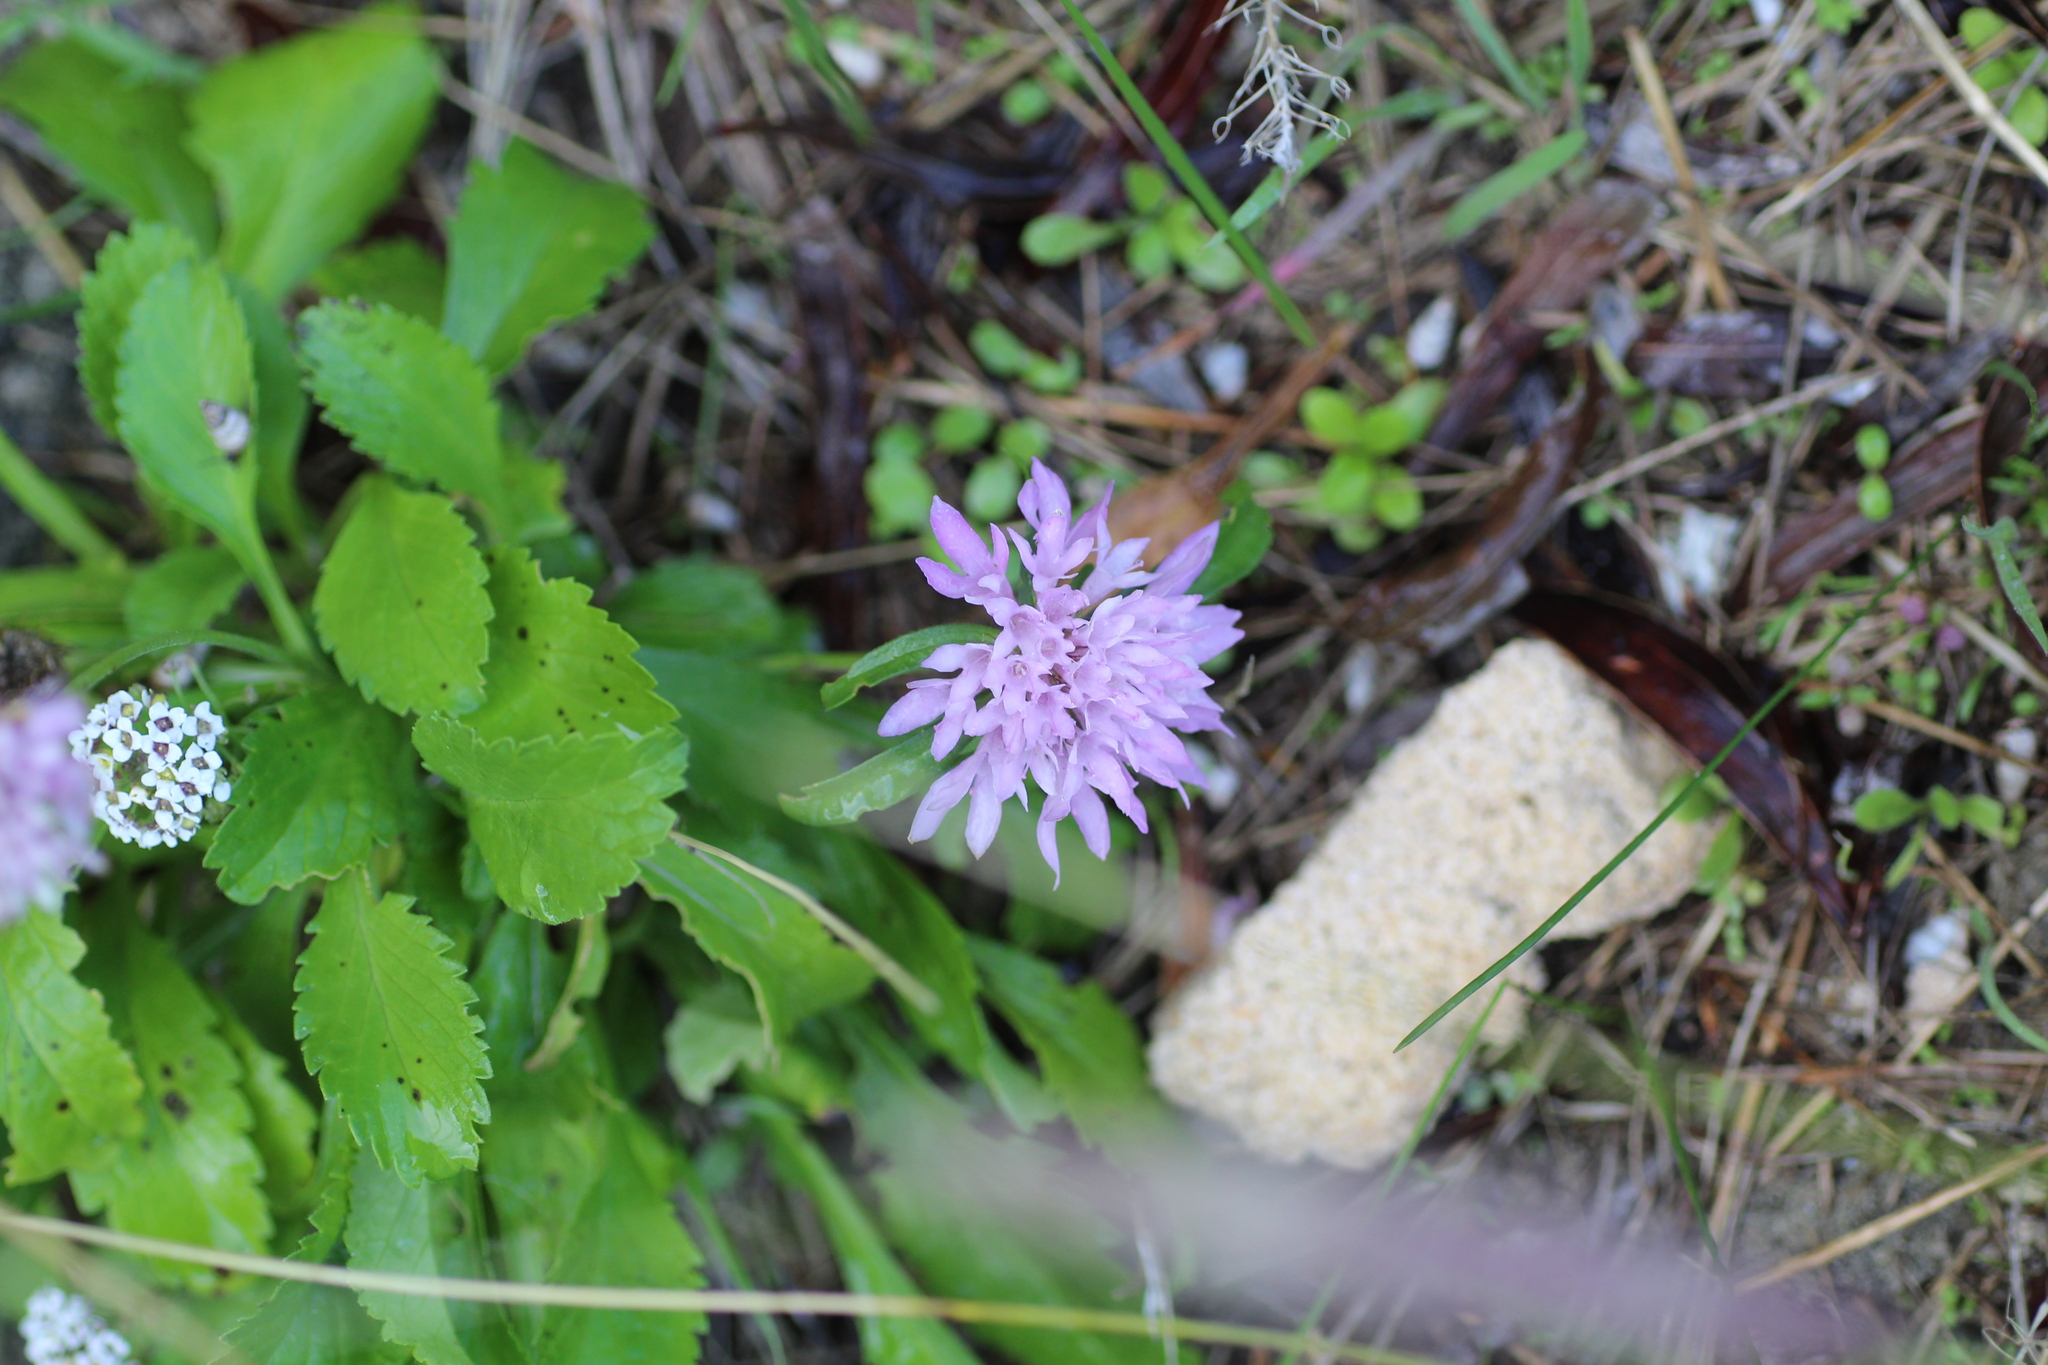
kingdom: Plantae
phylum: Tracheophyta
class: Magnoliopsida
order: Dipsacales
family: Caprifoliaceae
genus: Sixalix
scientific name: Sixalix atropurpurea
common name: Sweet scabious
